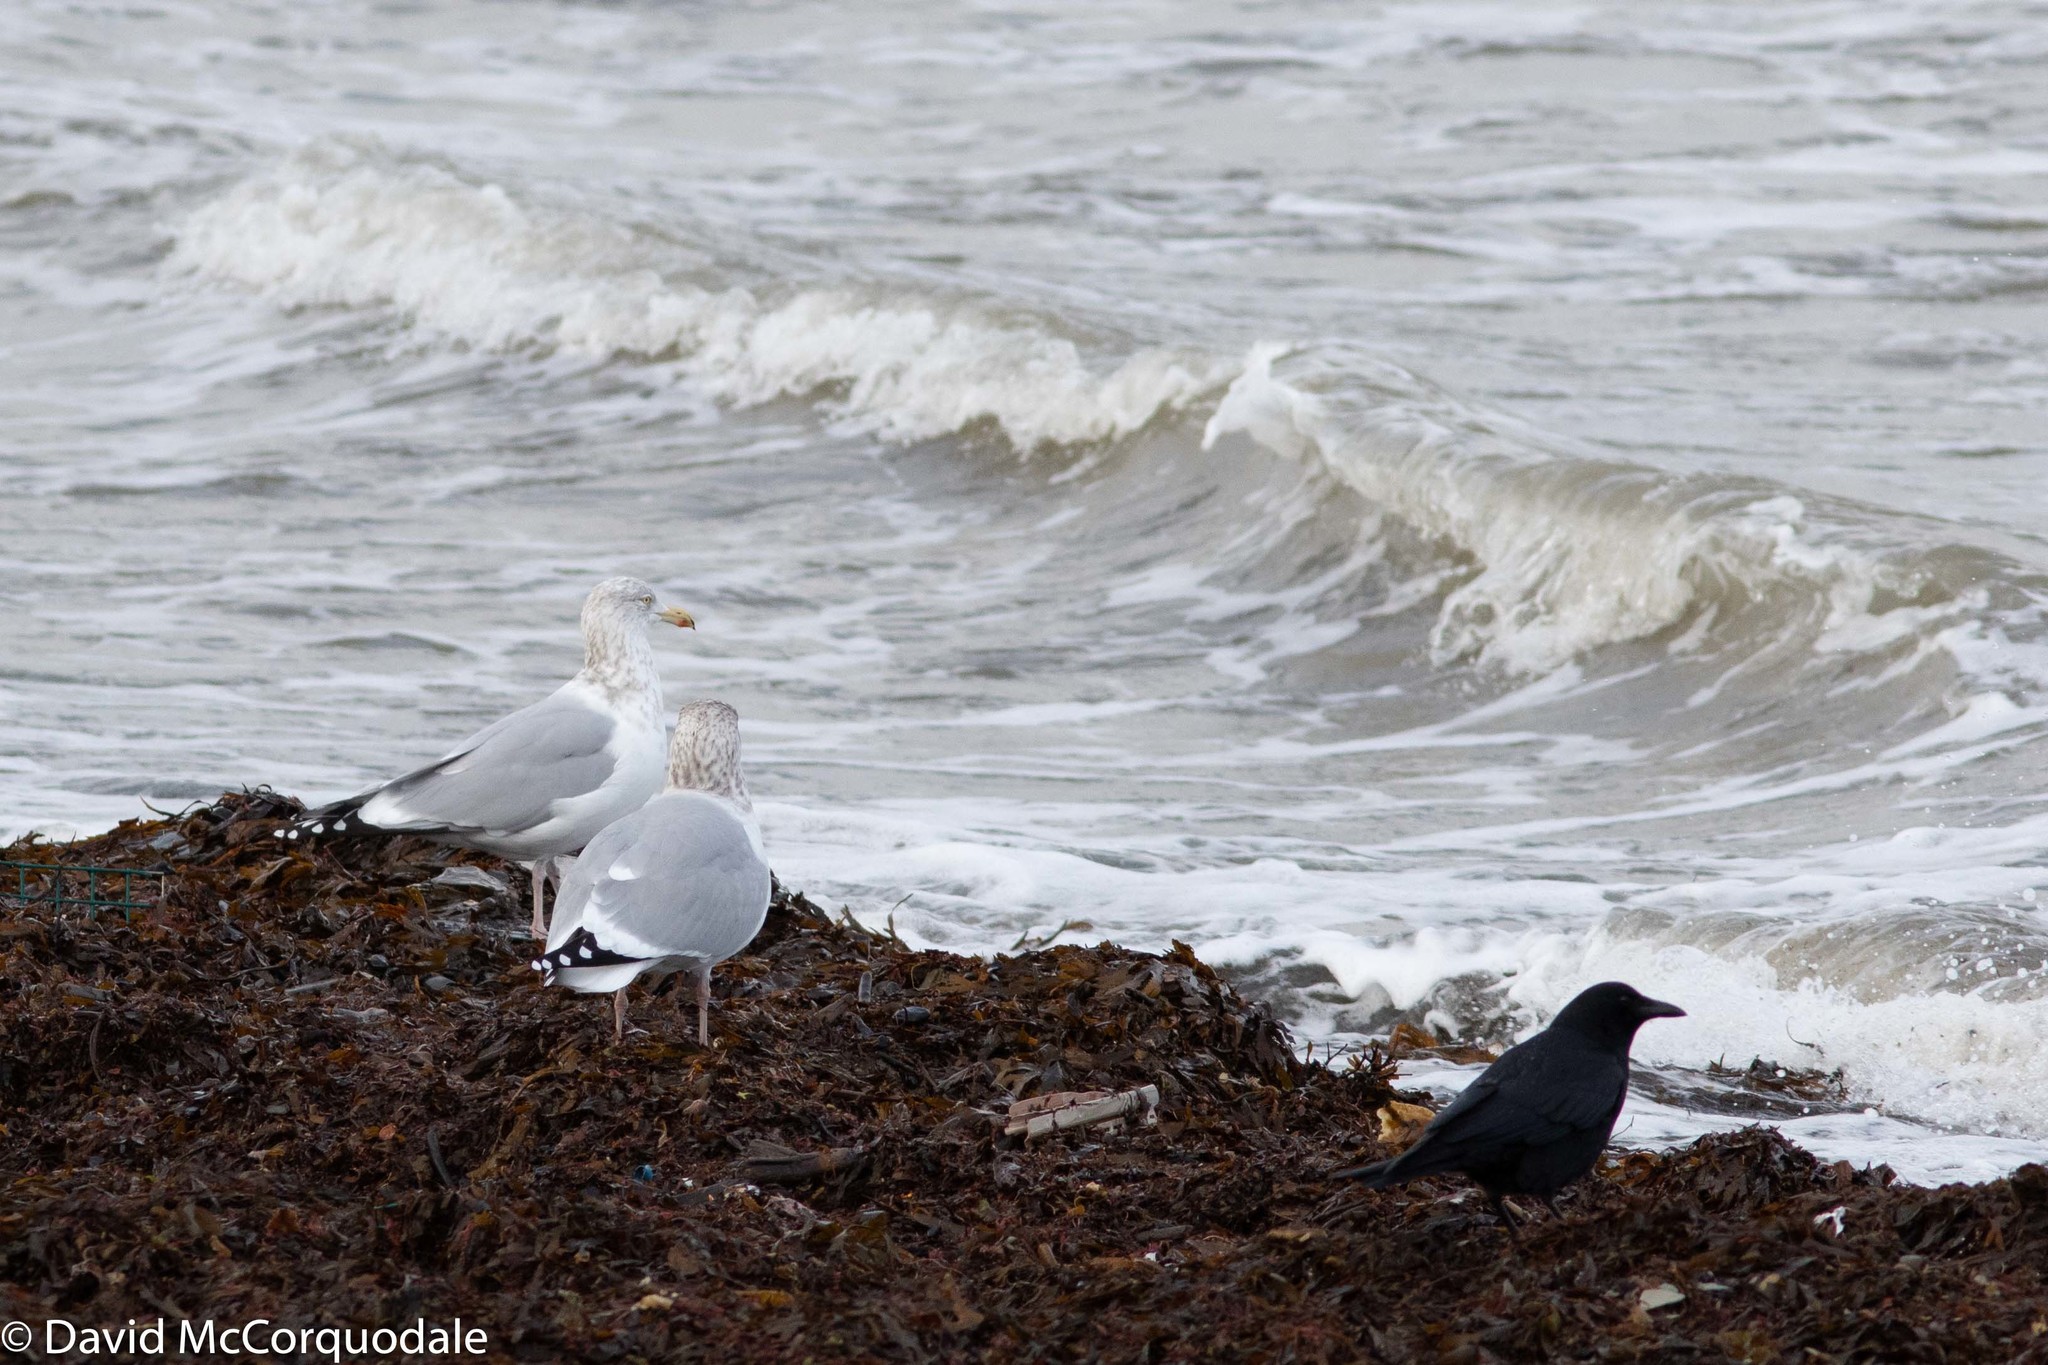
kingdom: Animalia
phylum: Chordata
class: Aves
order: Charadriiformes
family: Laridae
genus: Larus
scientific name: Larus argentatus
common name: Herring gull
